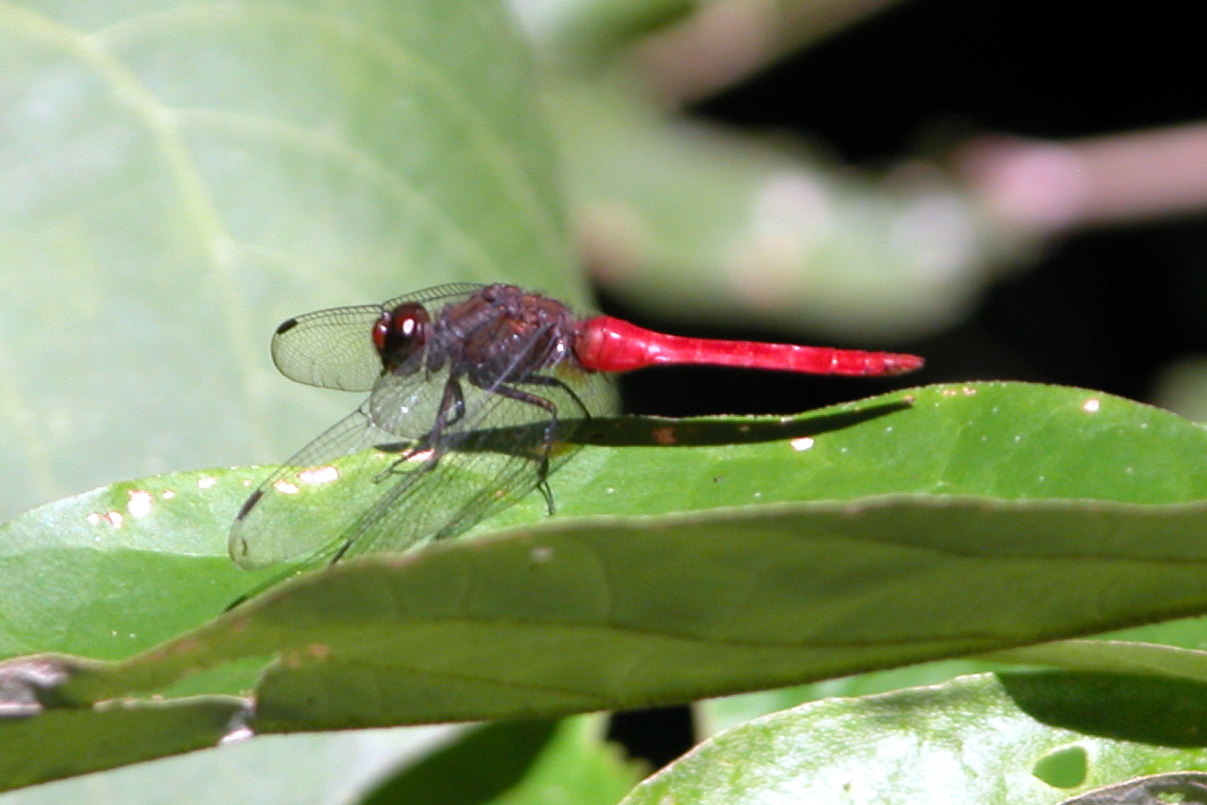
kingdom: Animalia
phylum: Arthropoda
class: Insecta
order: Odonata
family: Libellulidae
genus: Orthetrum
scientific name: Orthetrum chrysis
